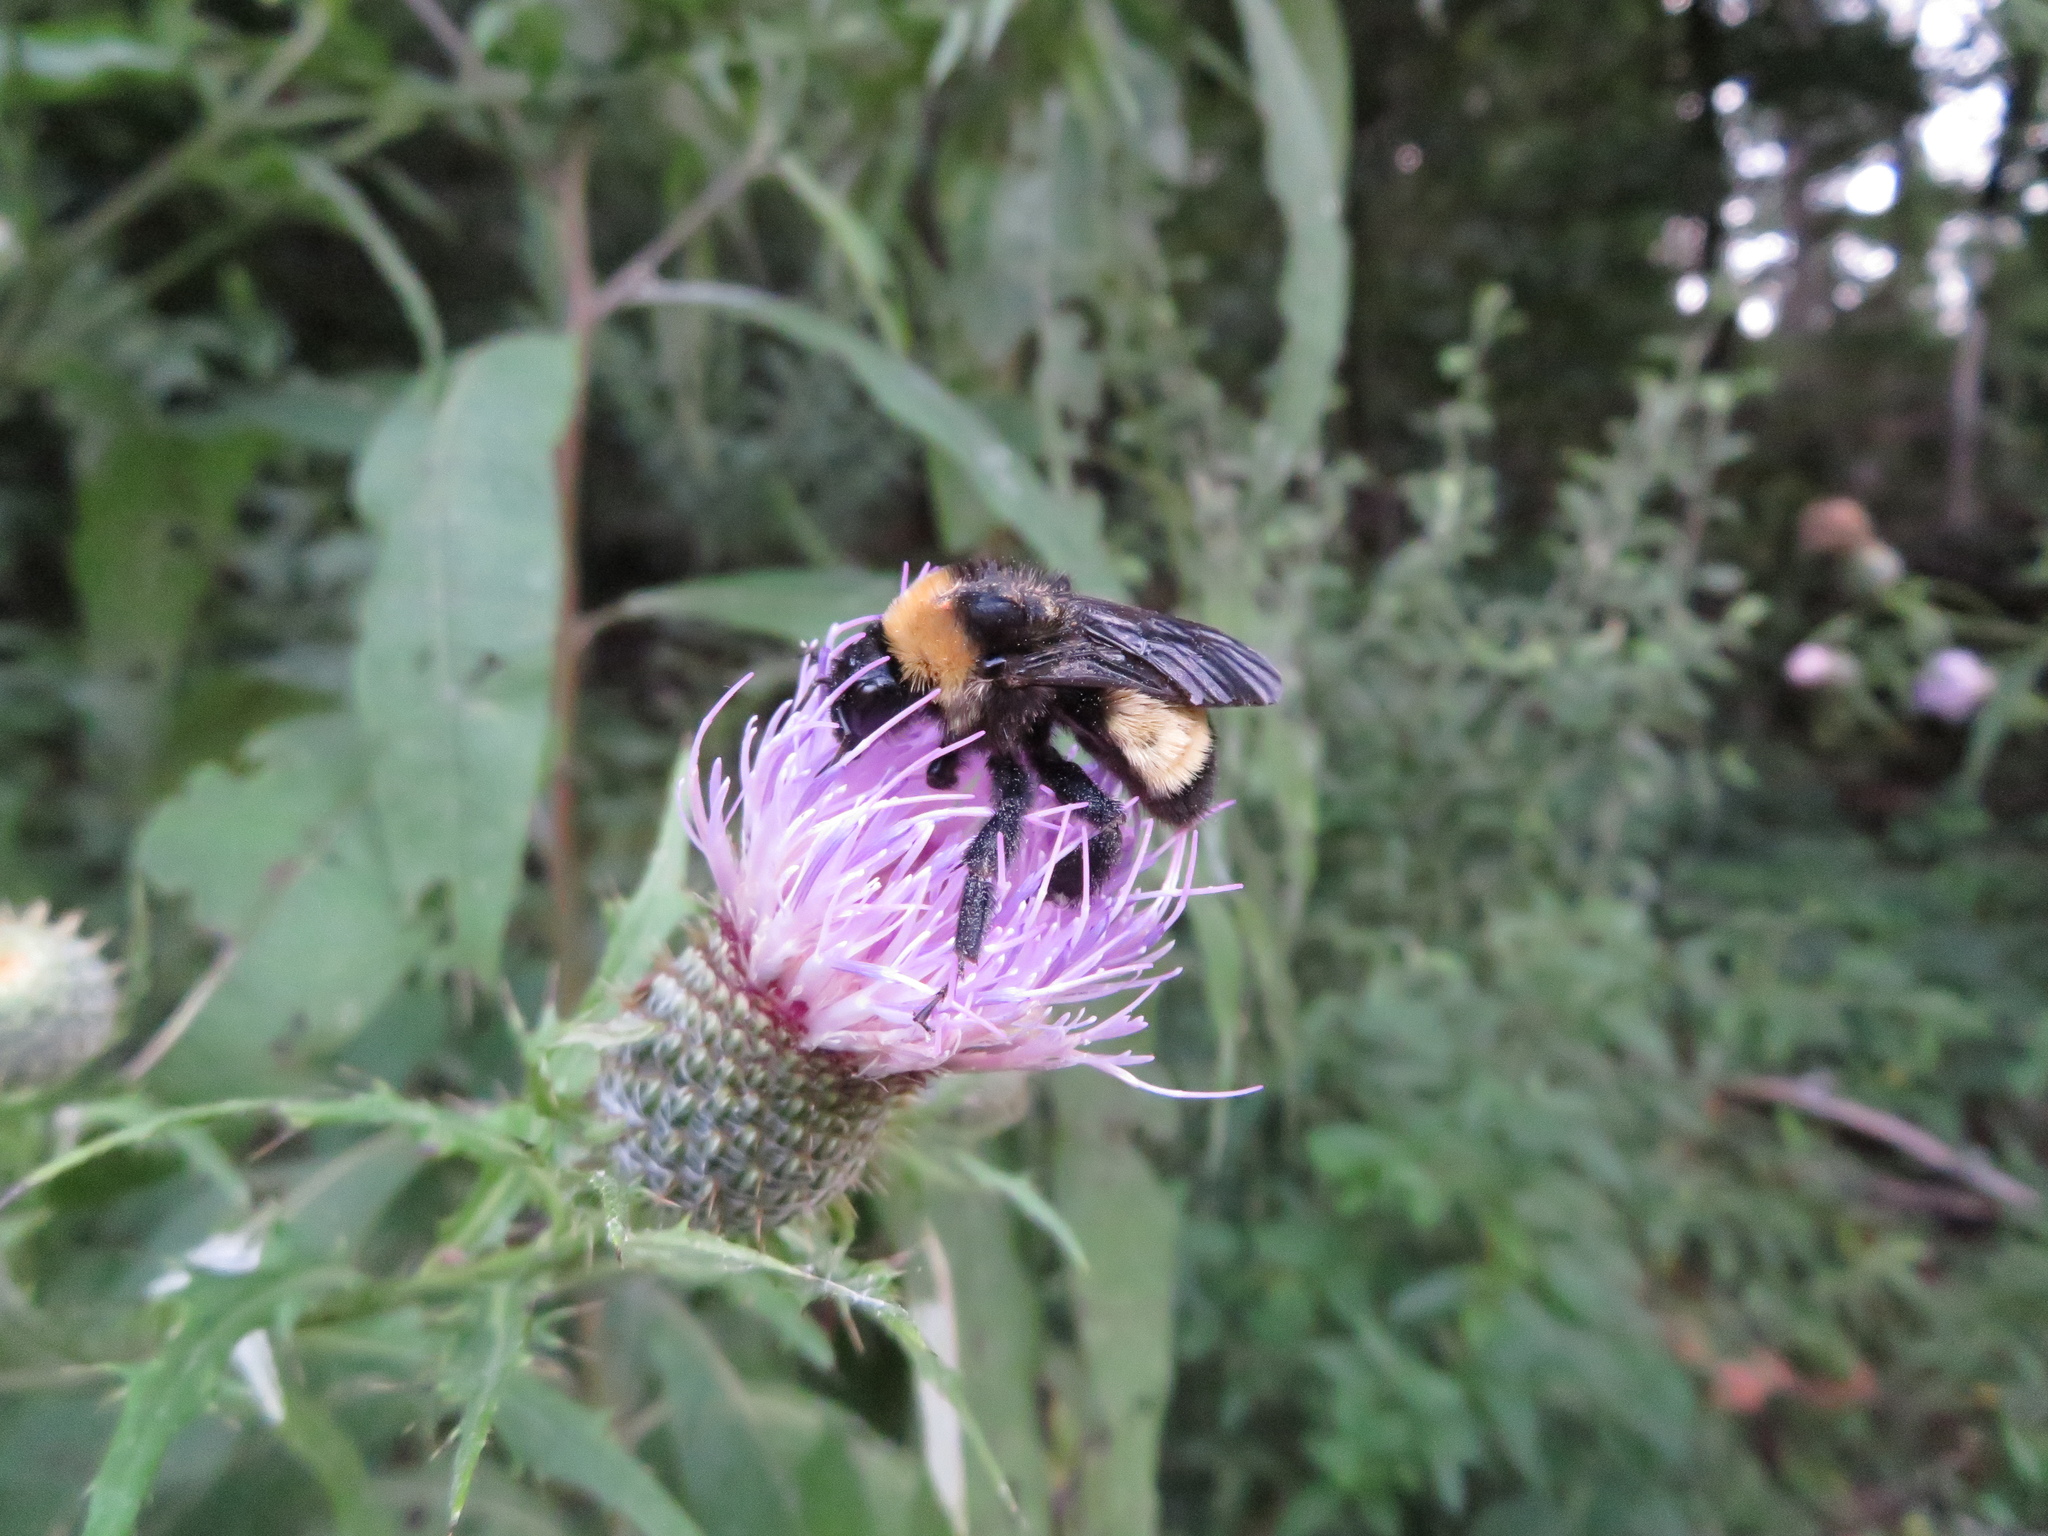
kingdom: Animalia
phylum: Arthropoda
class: Insecta
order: Hymenoptera
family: Apidae
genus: Bombus
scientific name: Bombus pensylvanicus
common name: Bumble bee
